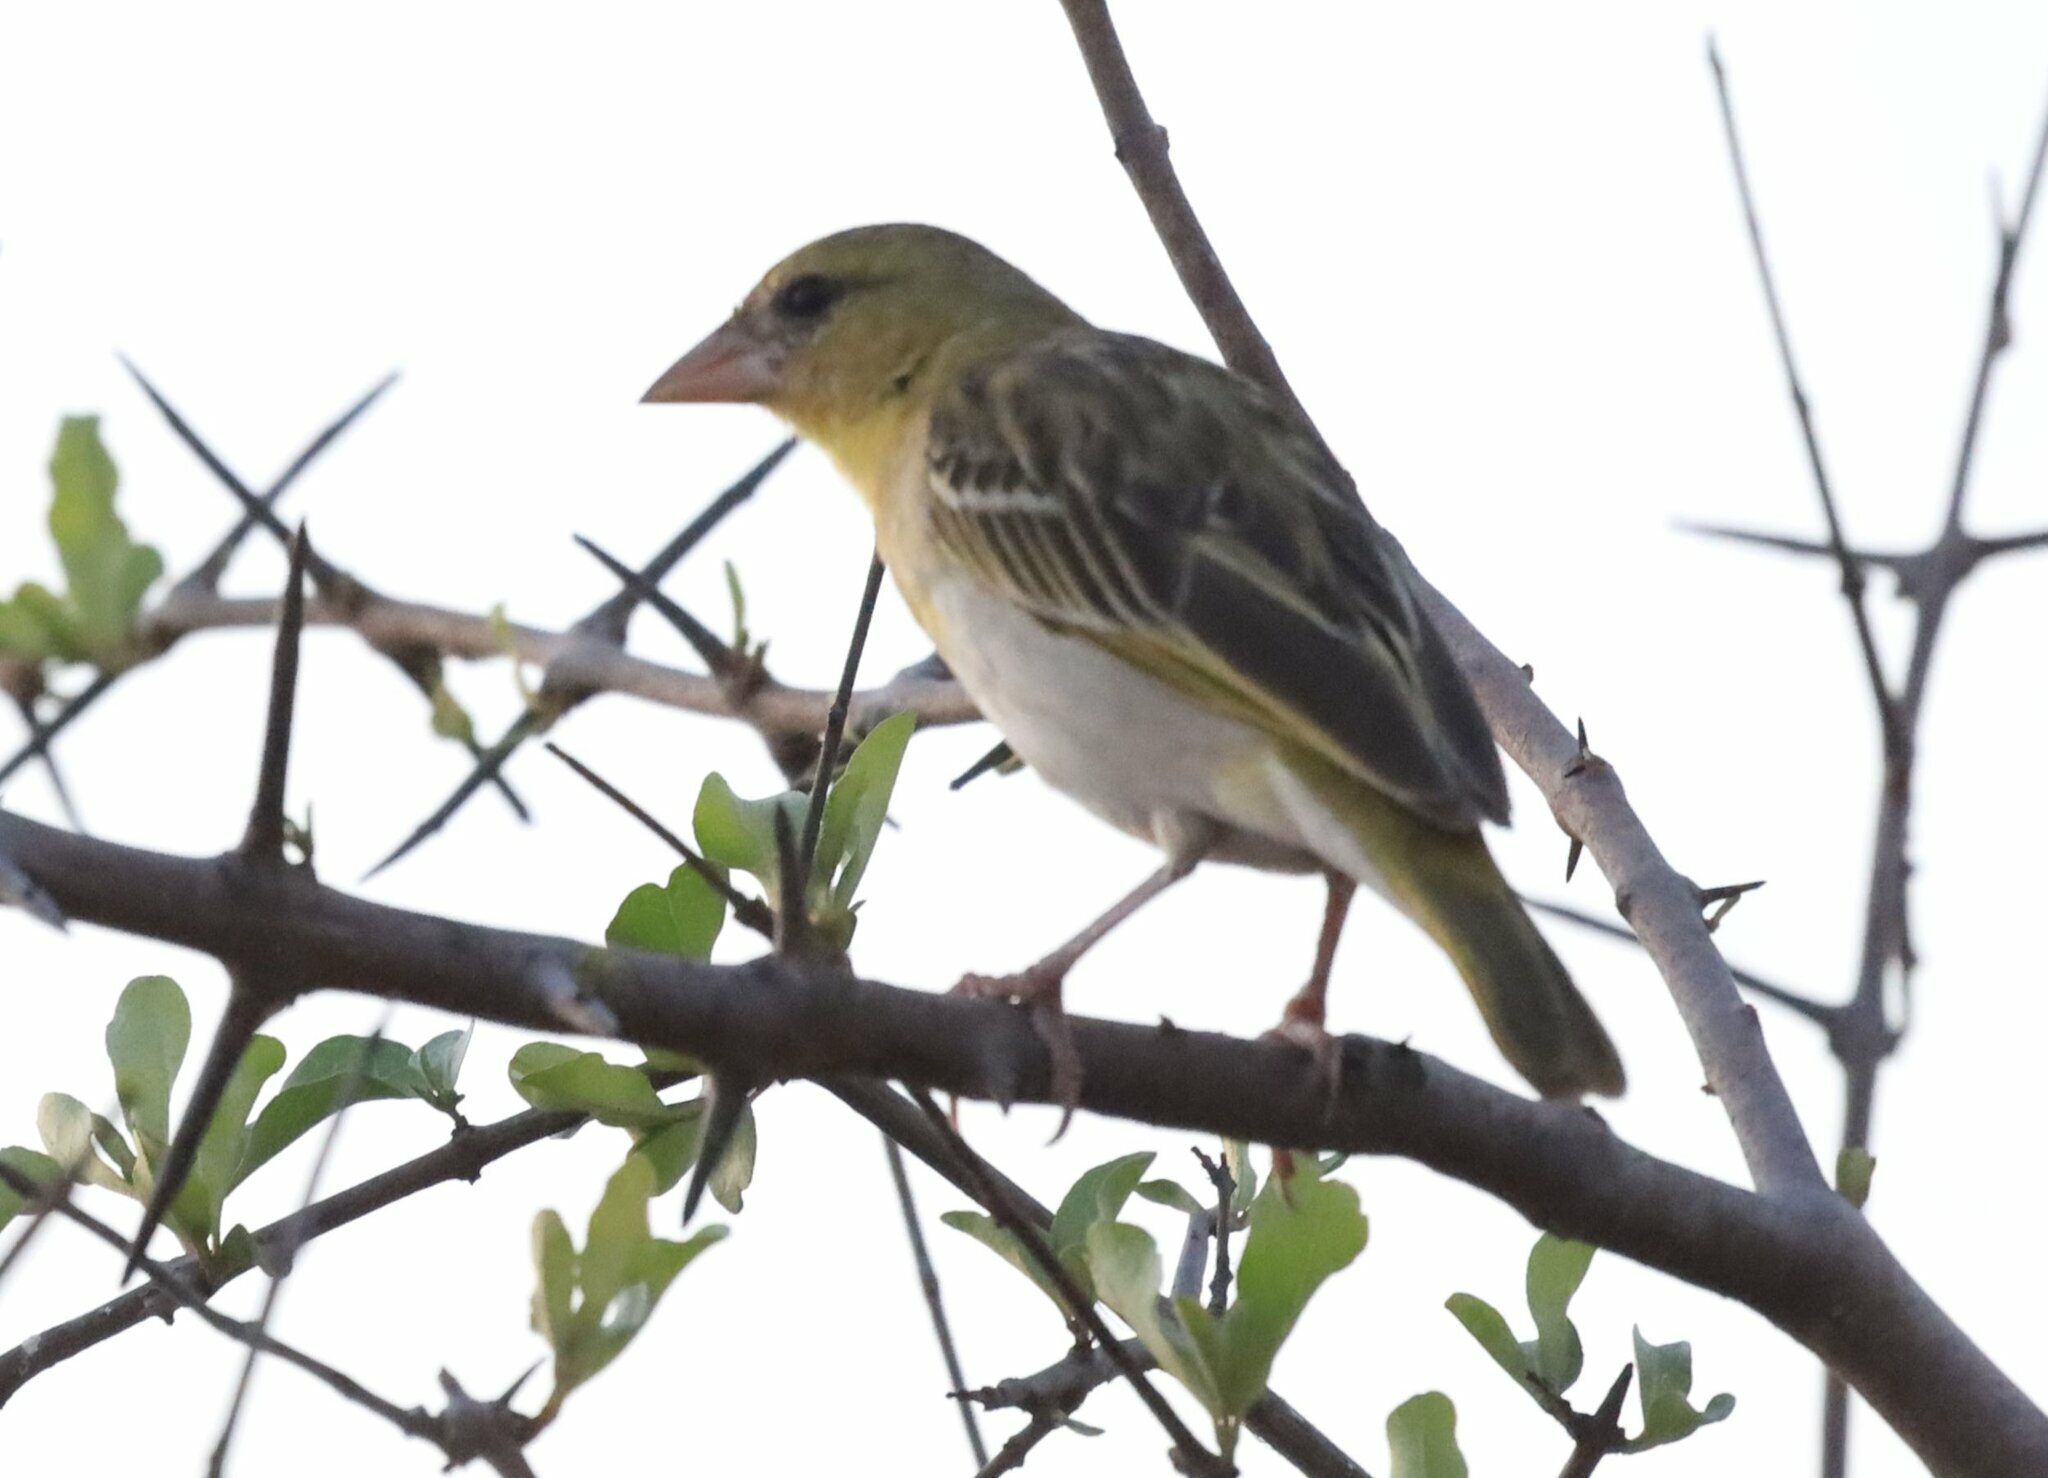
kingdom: Animalia
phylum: Chordata
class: Aves
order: Passeriformes
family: Ploceidae
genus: Ploceus
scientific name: Ploceus velatus
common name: Southern masked weaver
